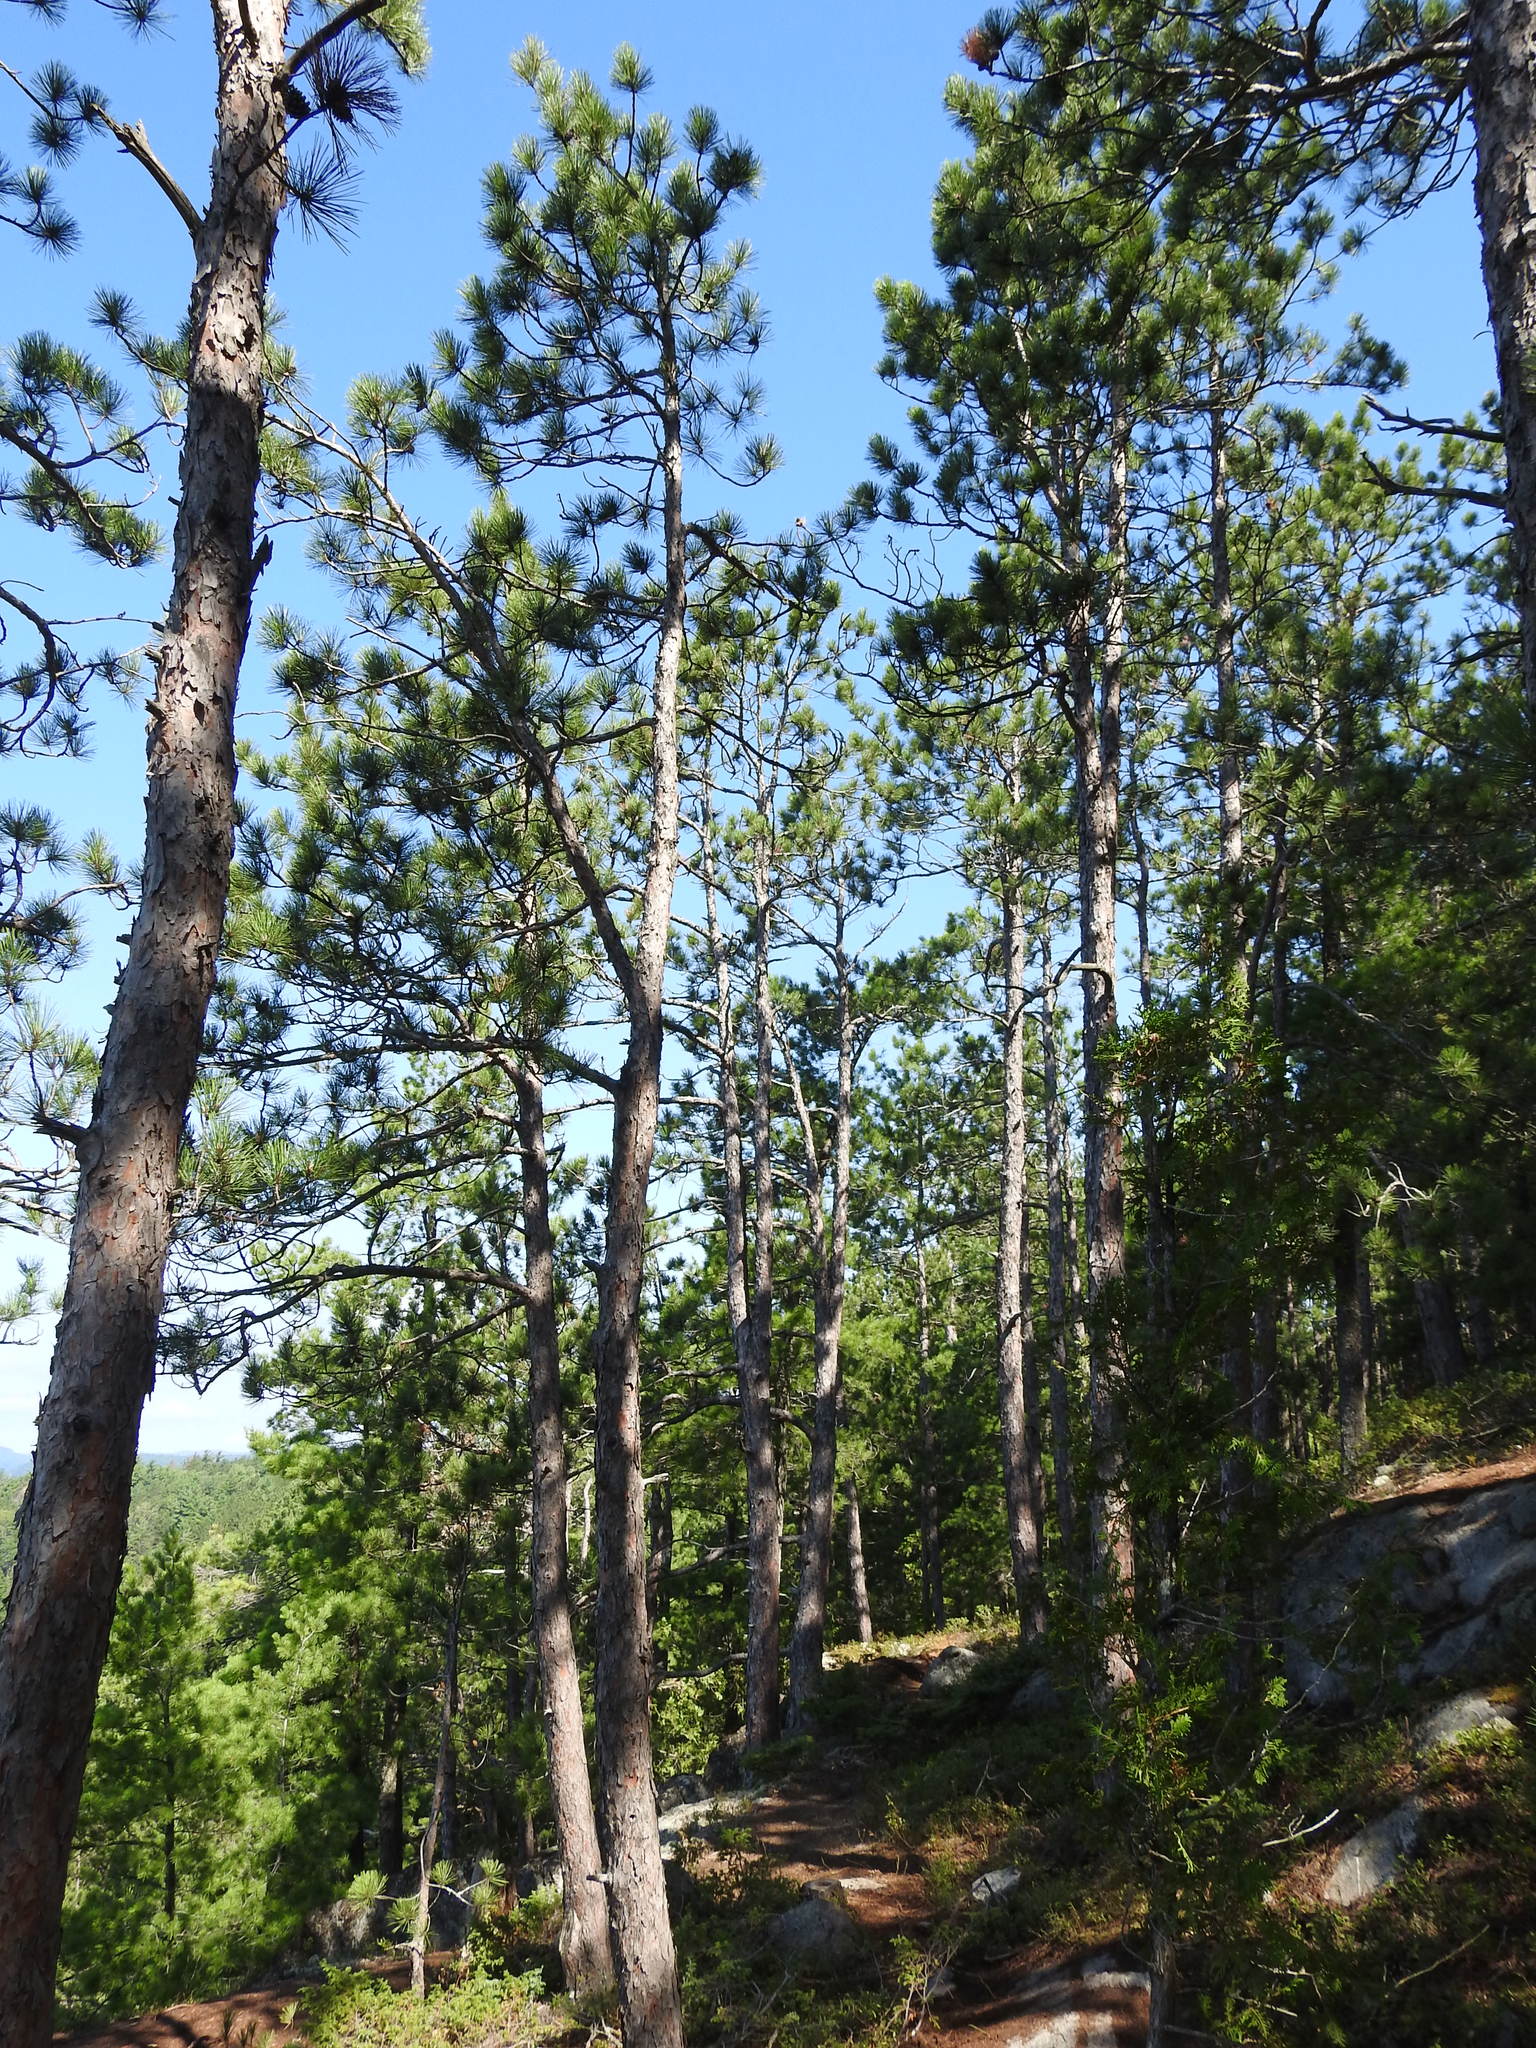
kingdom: Plantae
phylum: Tracheophyta
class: Pinopsida
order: Pinales
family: Pinaceae
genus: Pinus
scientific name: Pinus resinosa
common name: Norway pine
